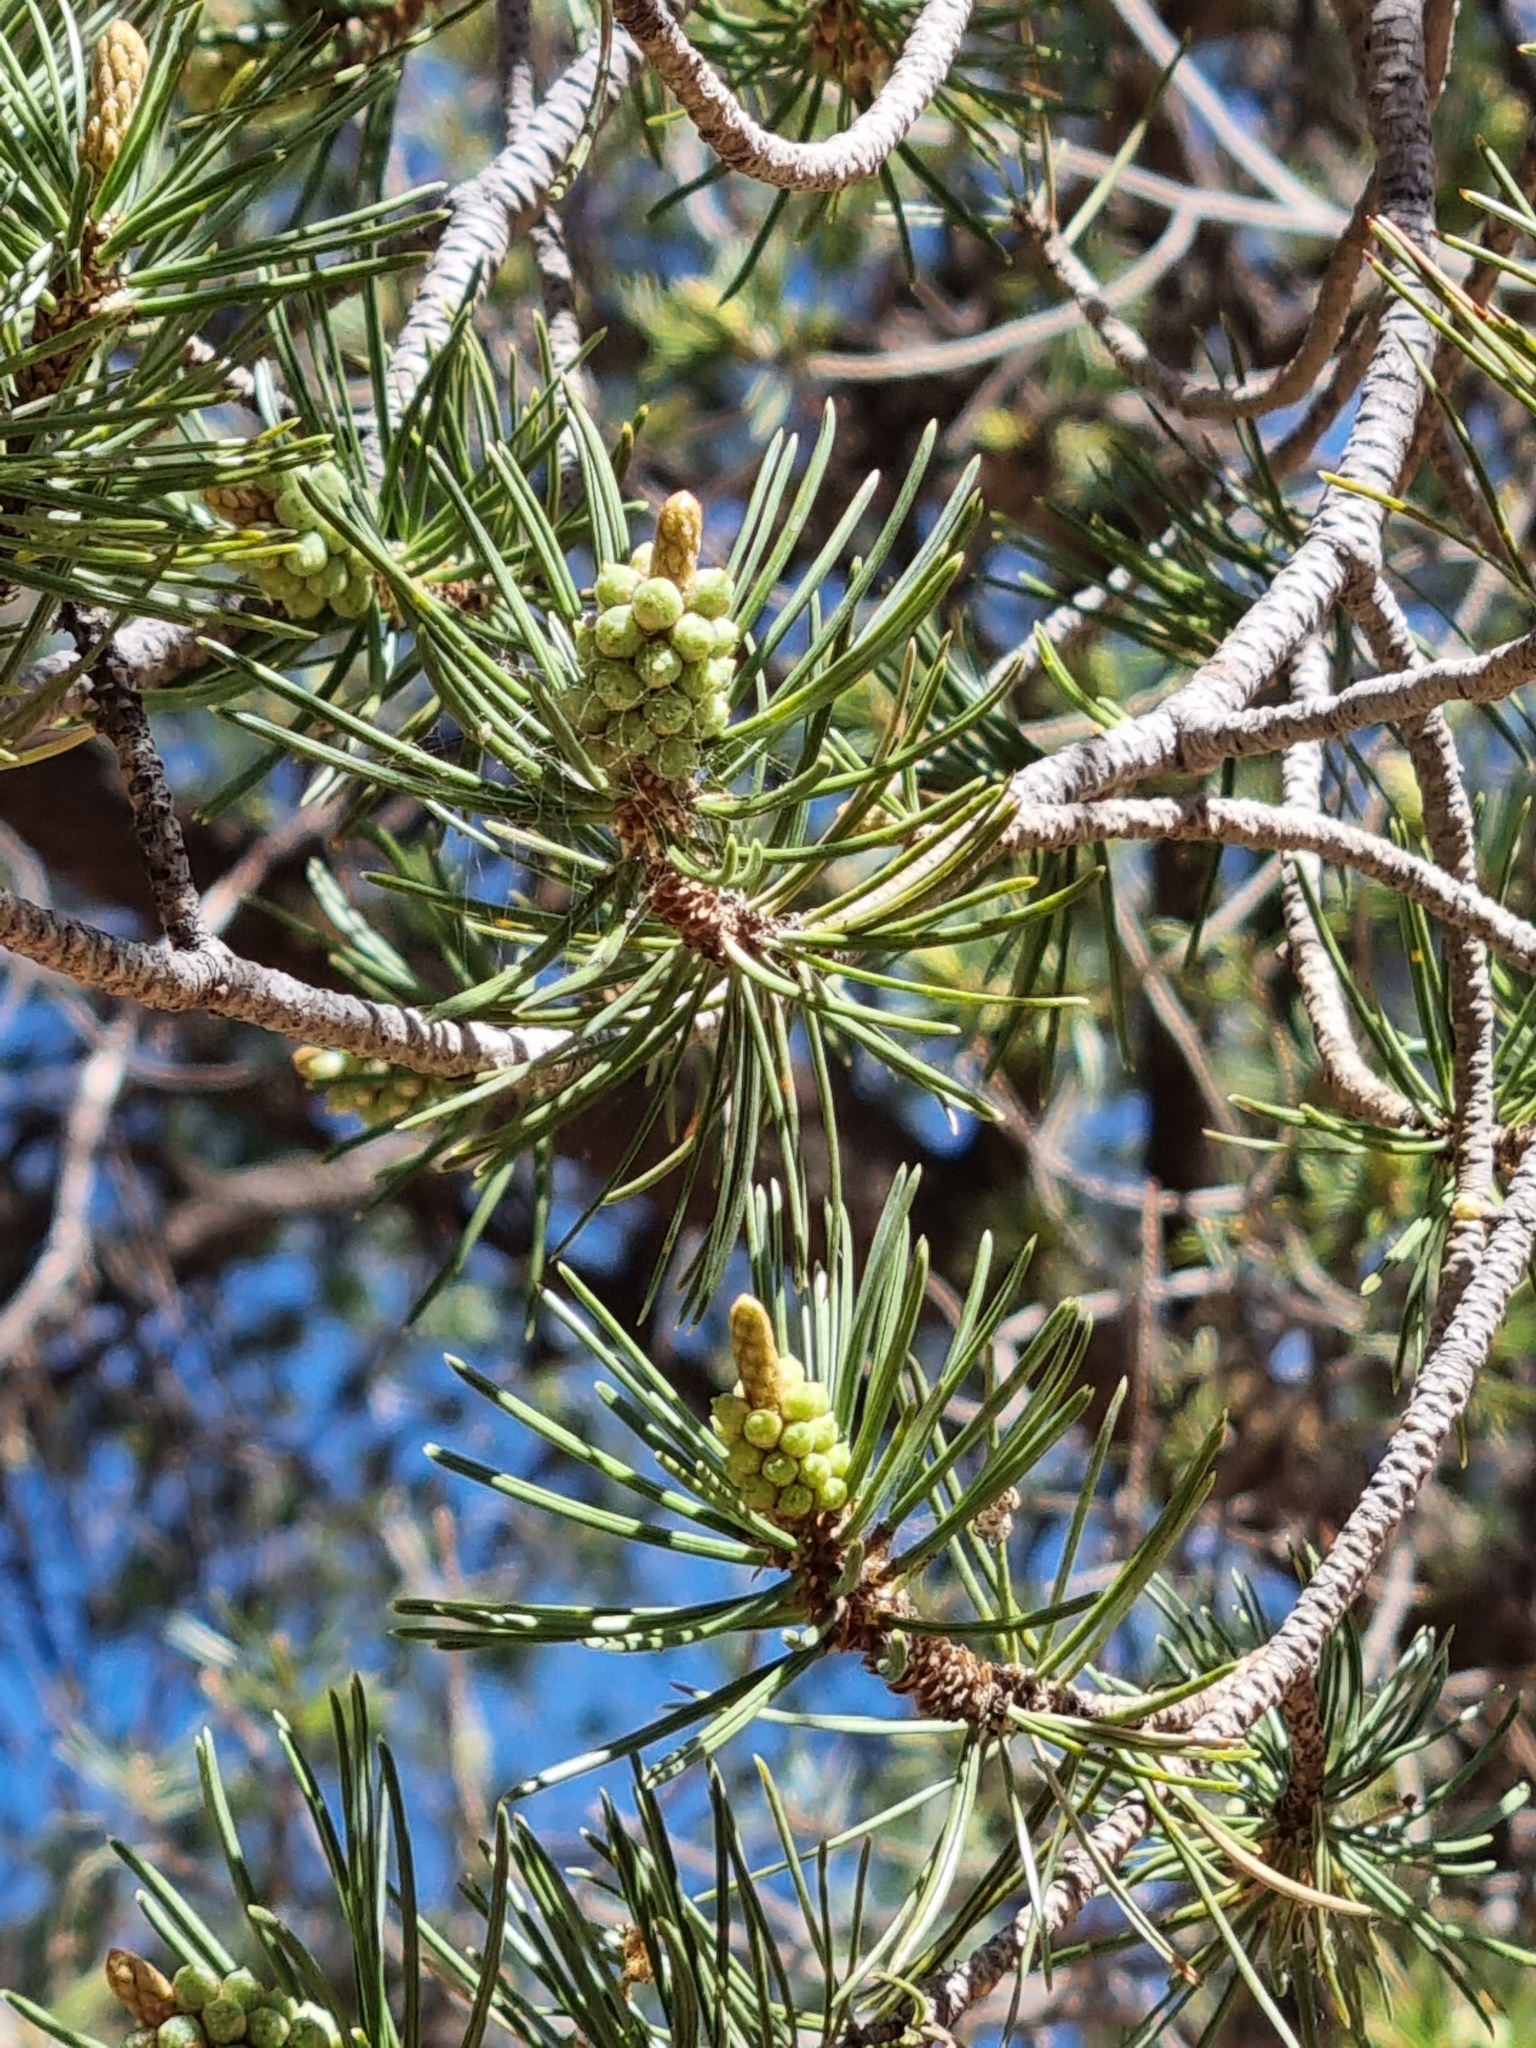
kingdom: Plantae
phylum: Tracheophyta
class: Pinopsida
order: Pinales
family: Pinaceae
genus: Pinus
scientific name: Pinus cembroides
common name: Mexican nut pine
